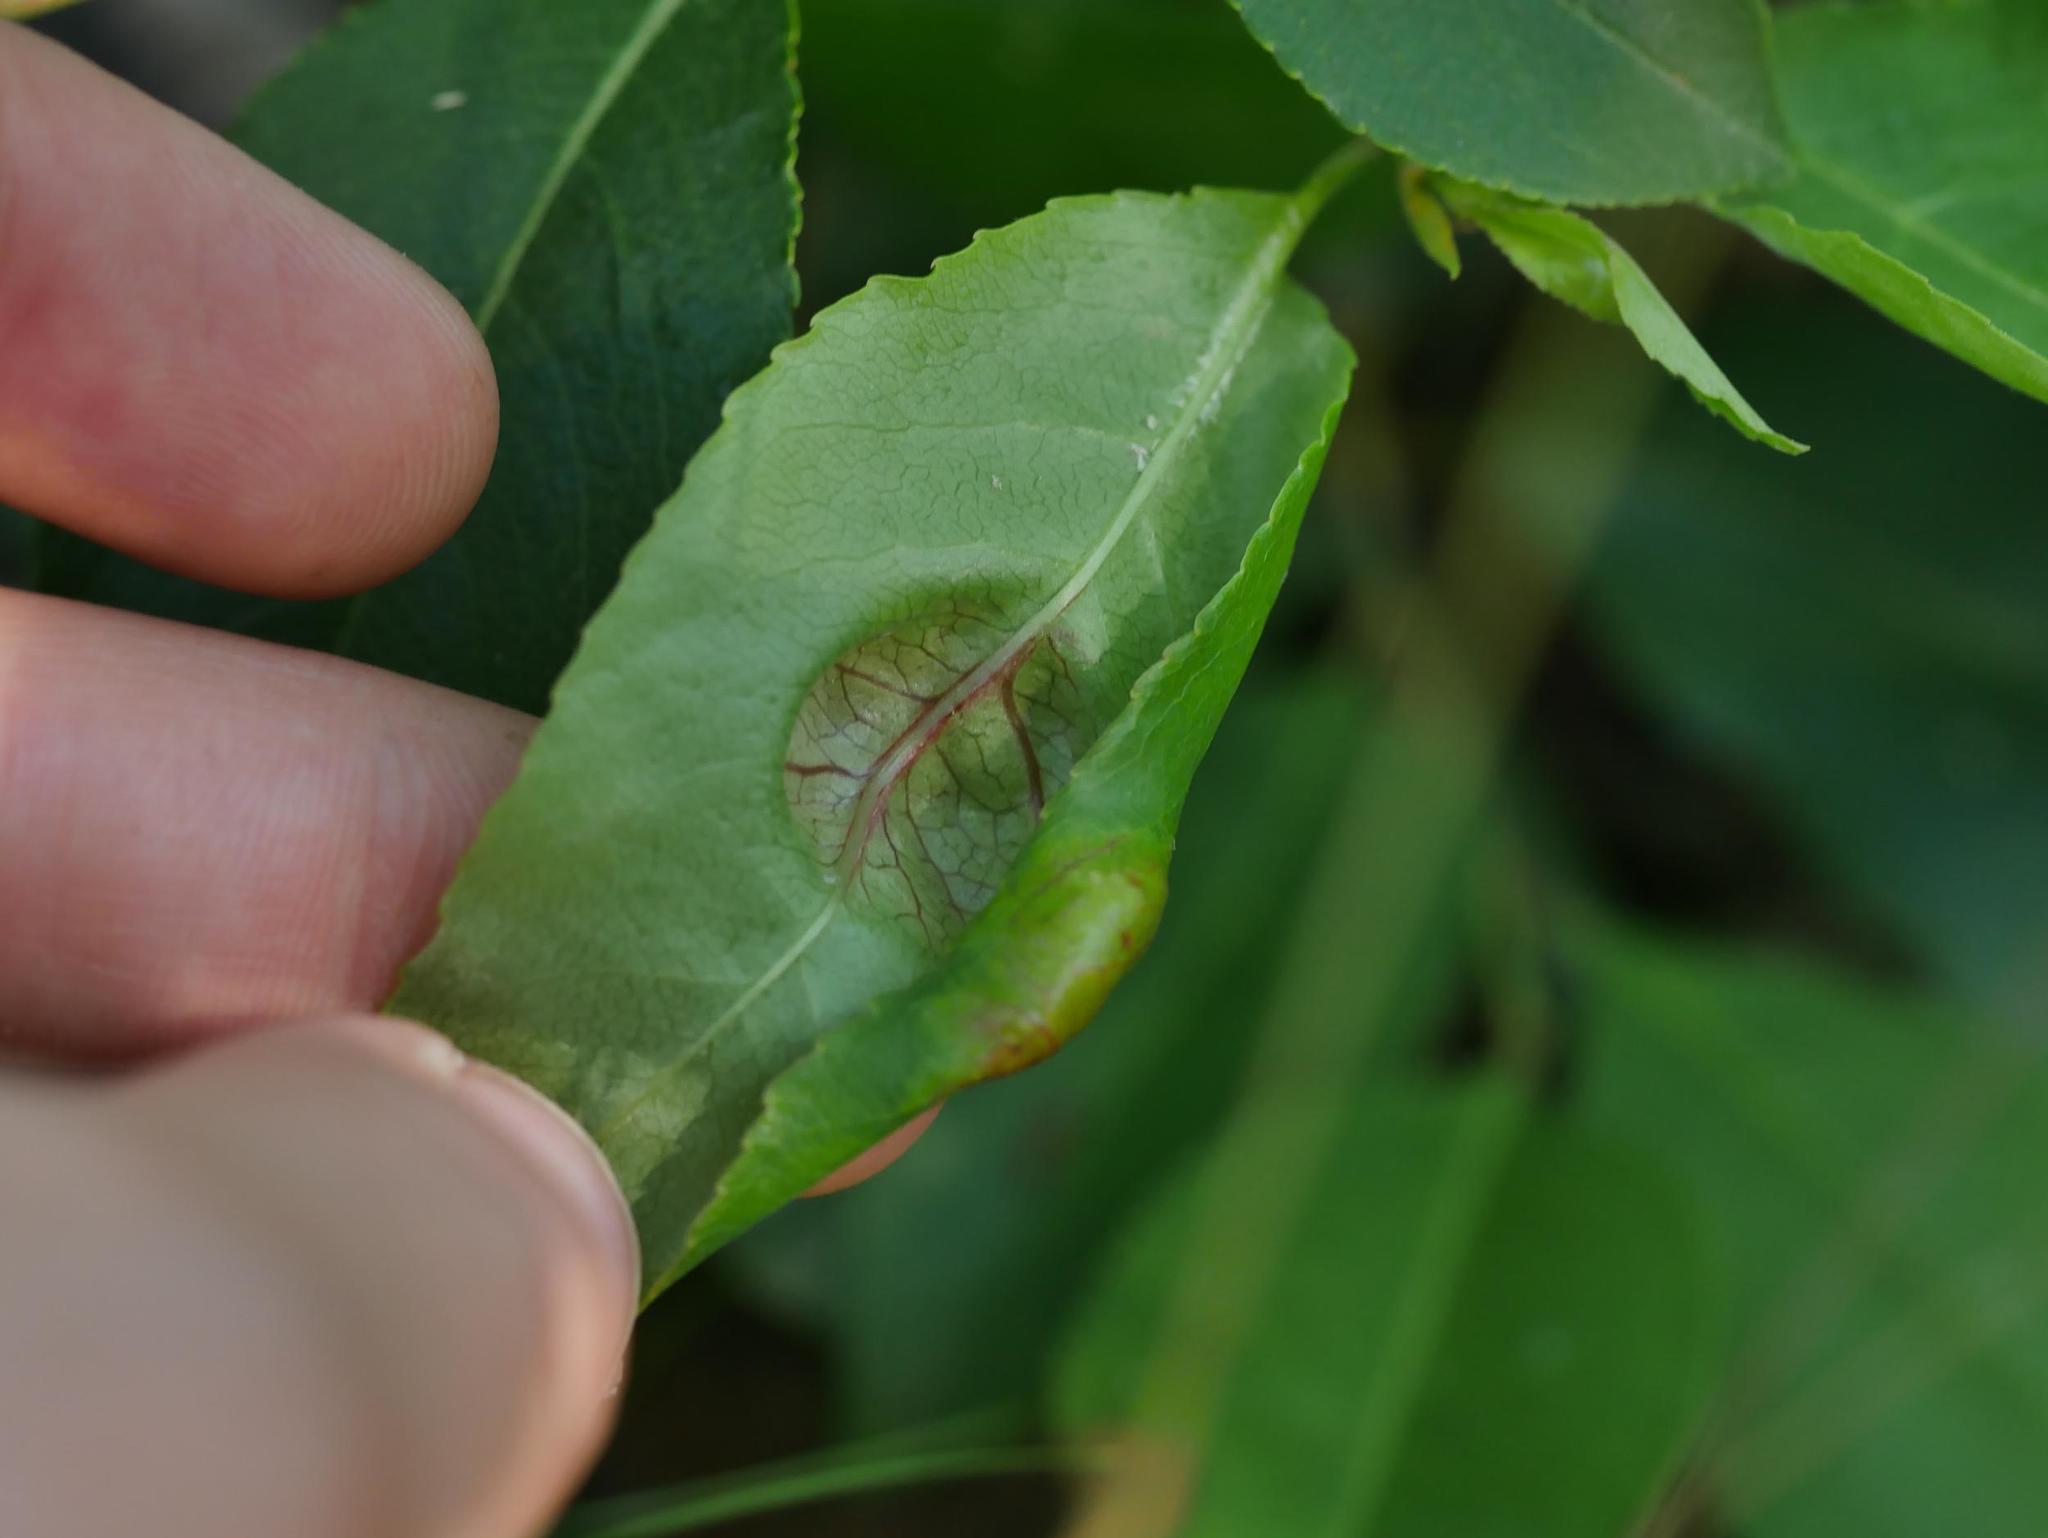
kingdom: Fungi
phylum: Ascomycota
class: Taphrinomycetes
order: Taphrinales
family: Taphrinaceae
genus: Taphrina
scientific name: Taphrina farlowii
